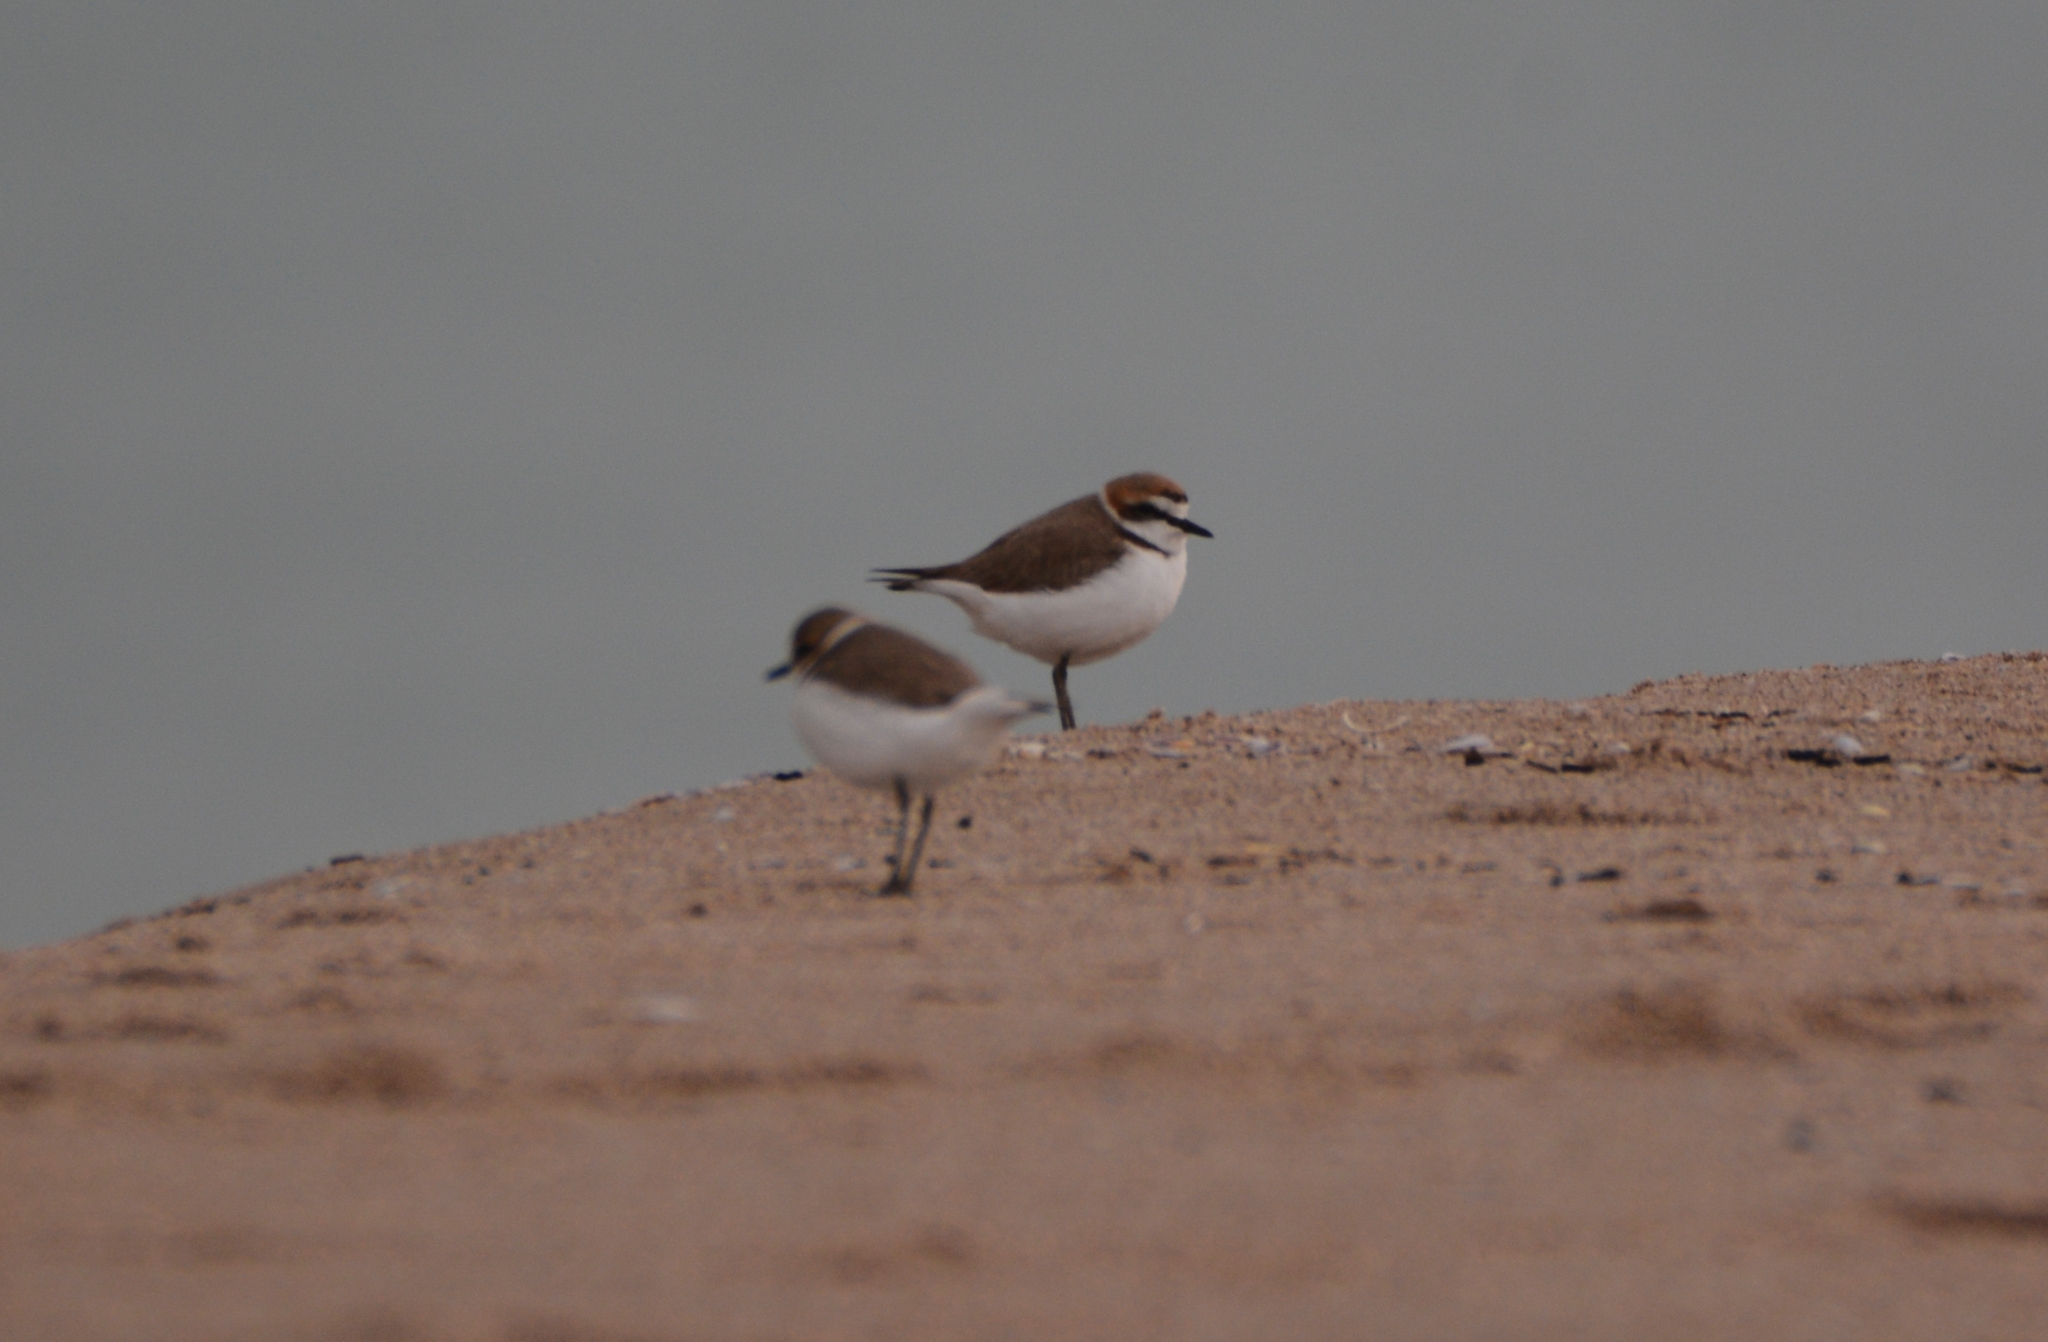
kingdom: Animalia
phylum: Chordata
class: Aves
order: Charadriiformes
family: Charadriidae
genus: Charadrius
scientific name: Charadrius alexandrinus
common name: Kentish plover
